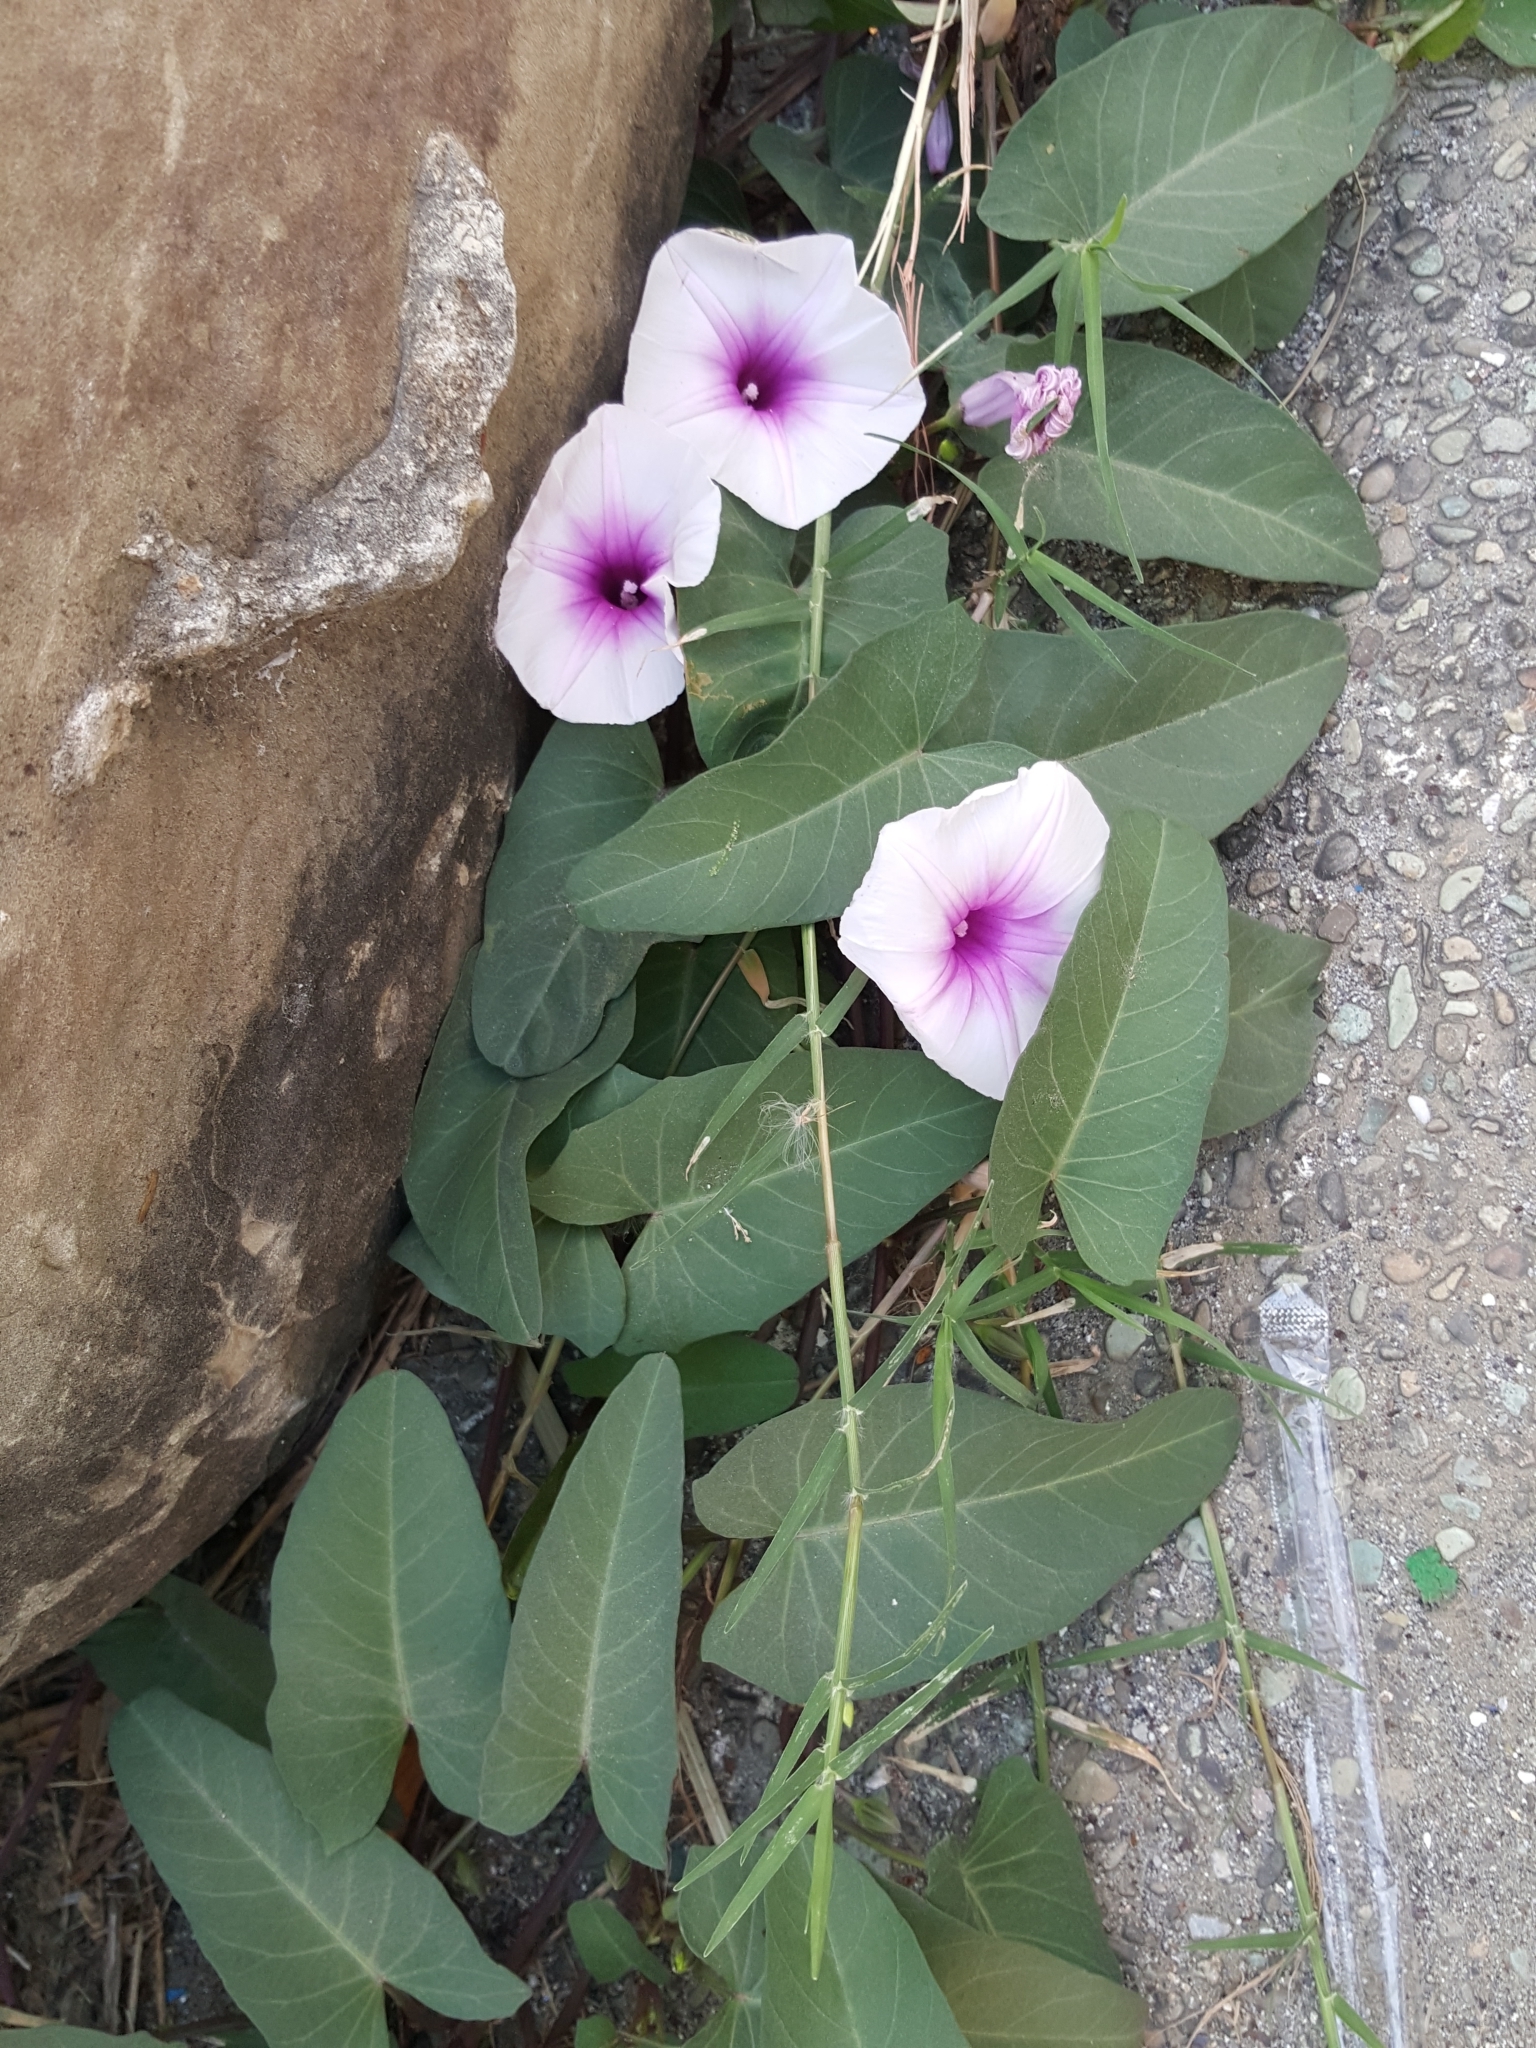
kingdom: Plantae
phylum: Tracheophyta
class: Magnoliopsida
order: Solanales
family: Convolvulaceae
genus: Ipomoea
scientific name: Ipomoea aquatica
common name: Swamp morning-glory
